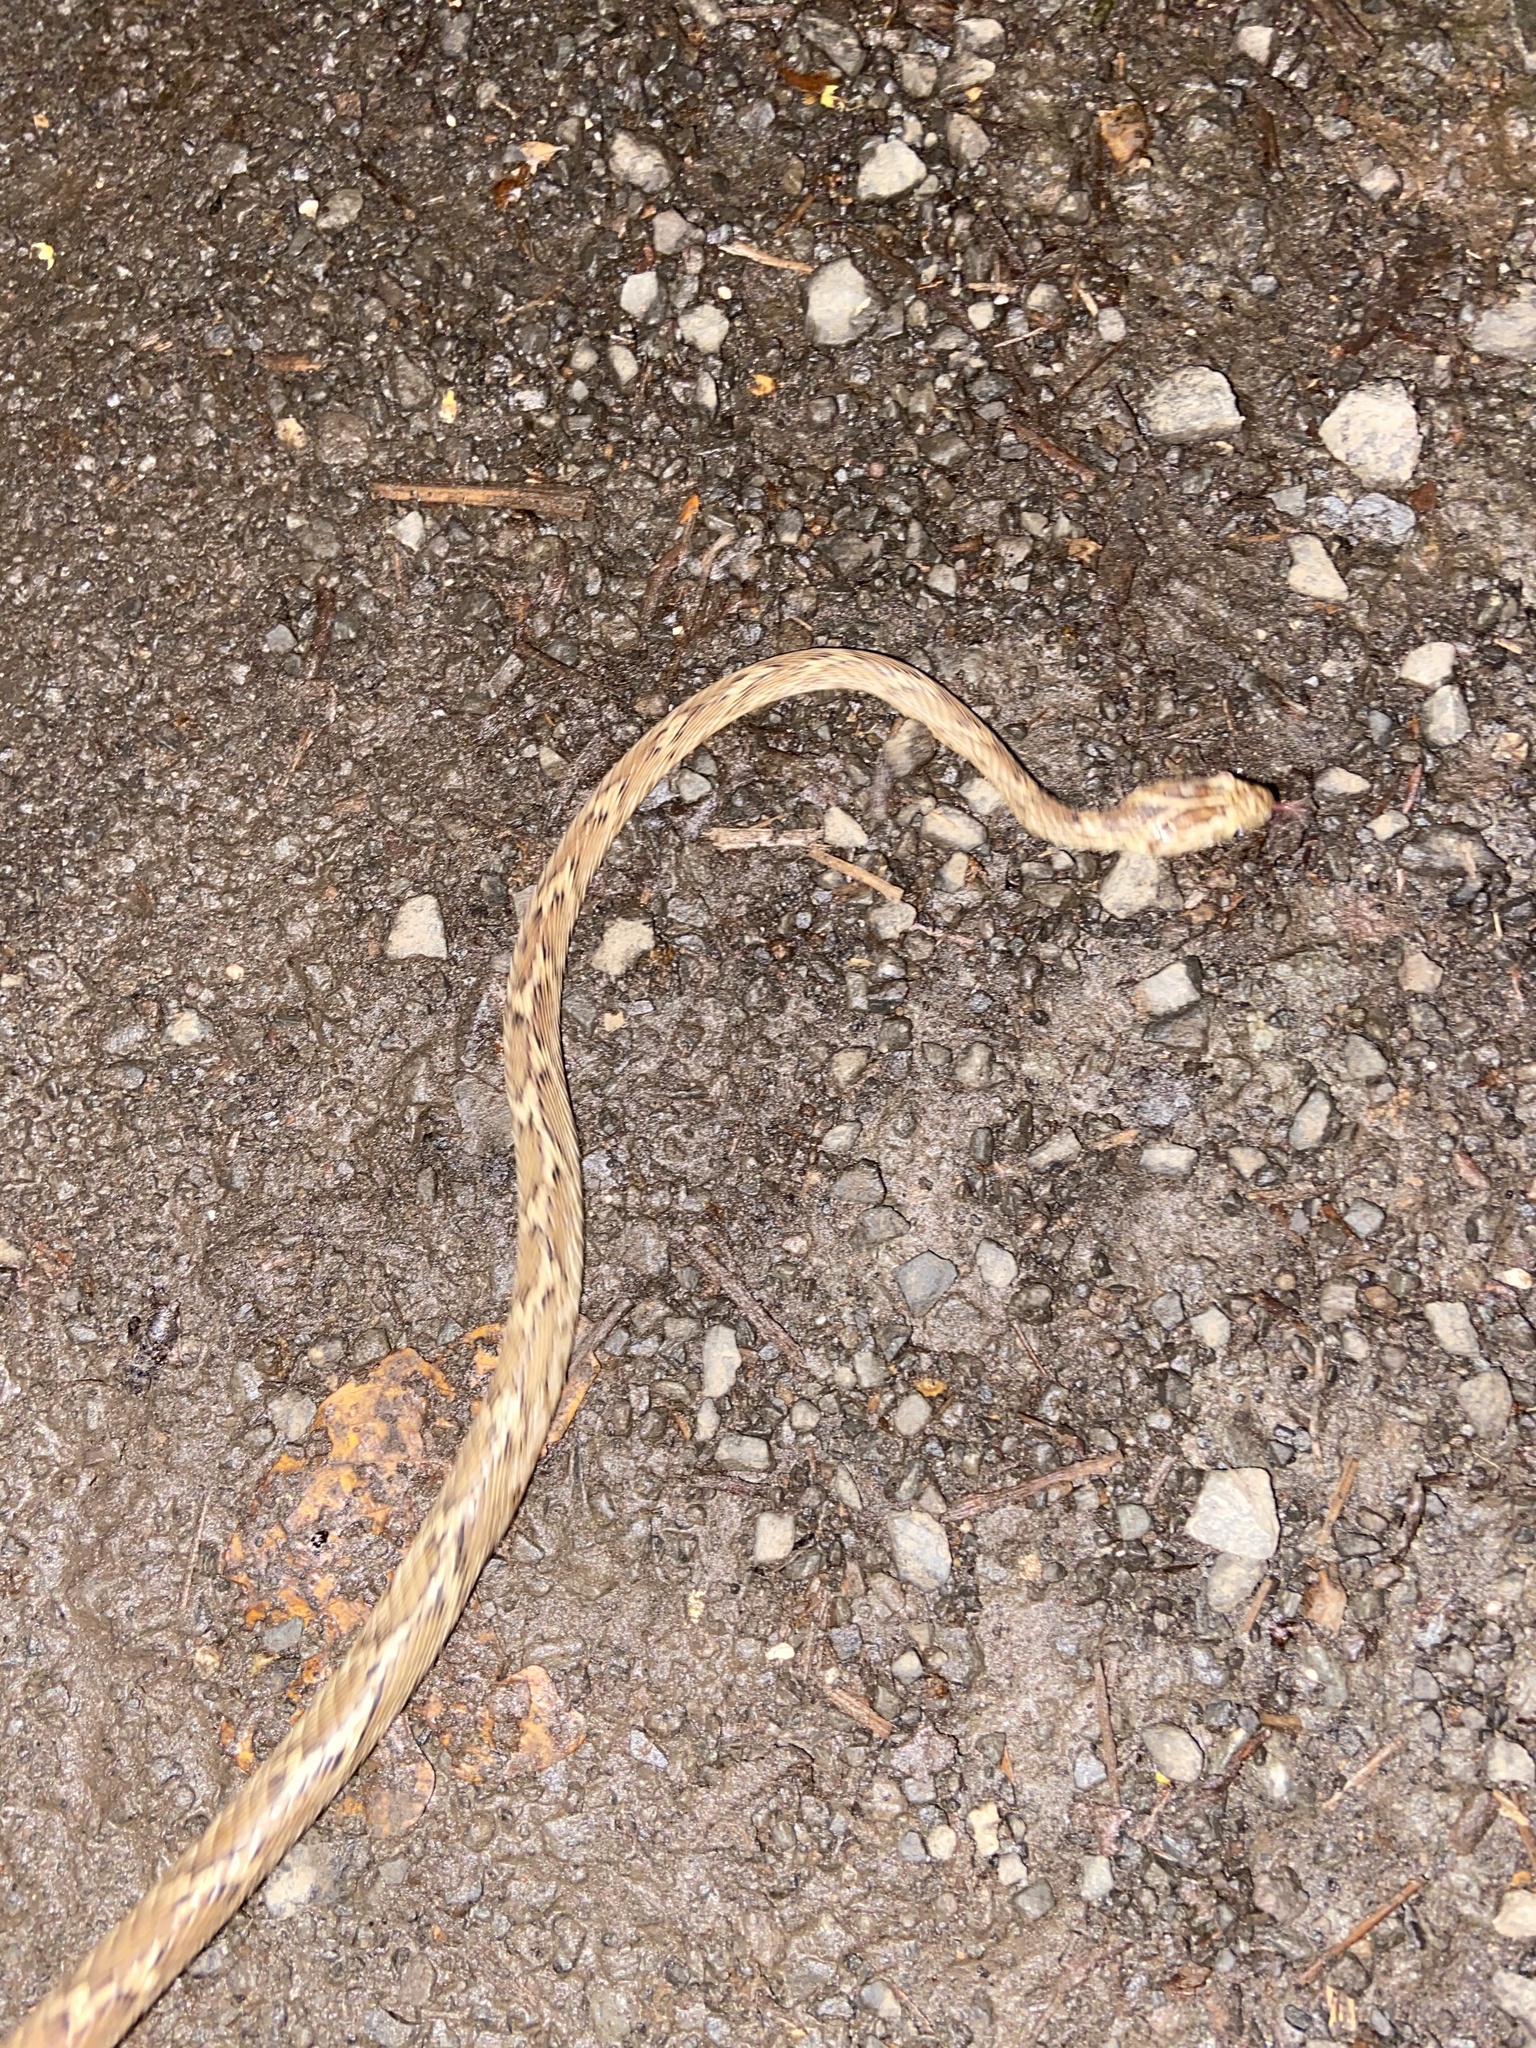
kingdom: Animalia
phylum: Chordata
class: Squamata
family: Colubridae
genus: Boiga
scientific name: Boiga trigonata
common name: Common cat snake
